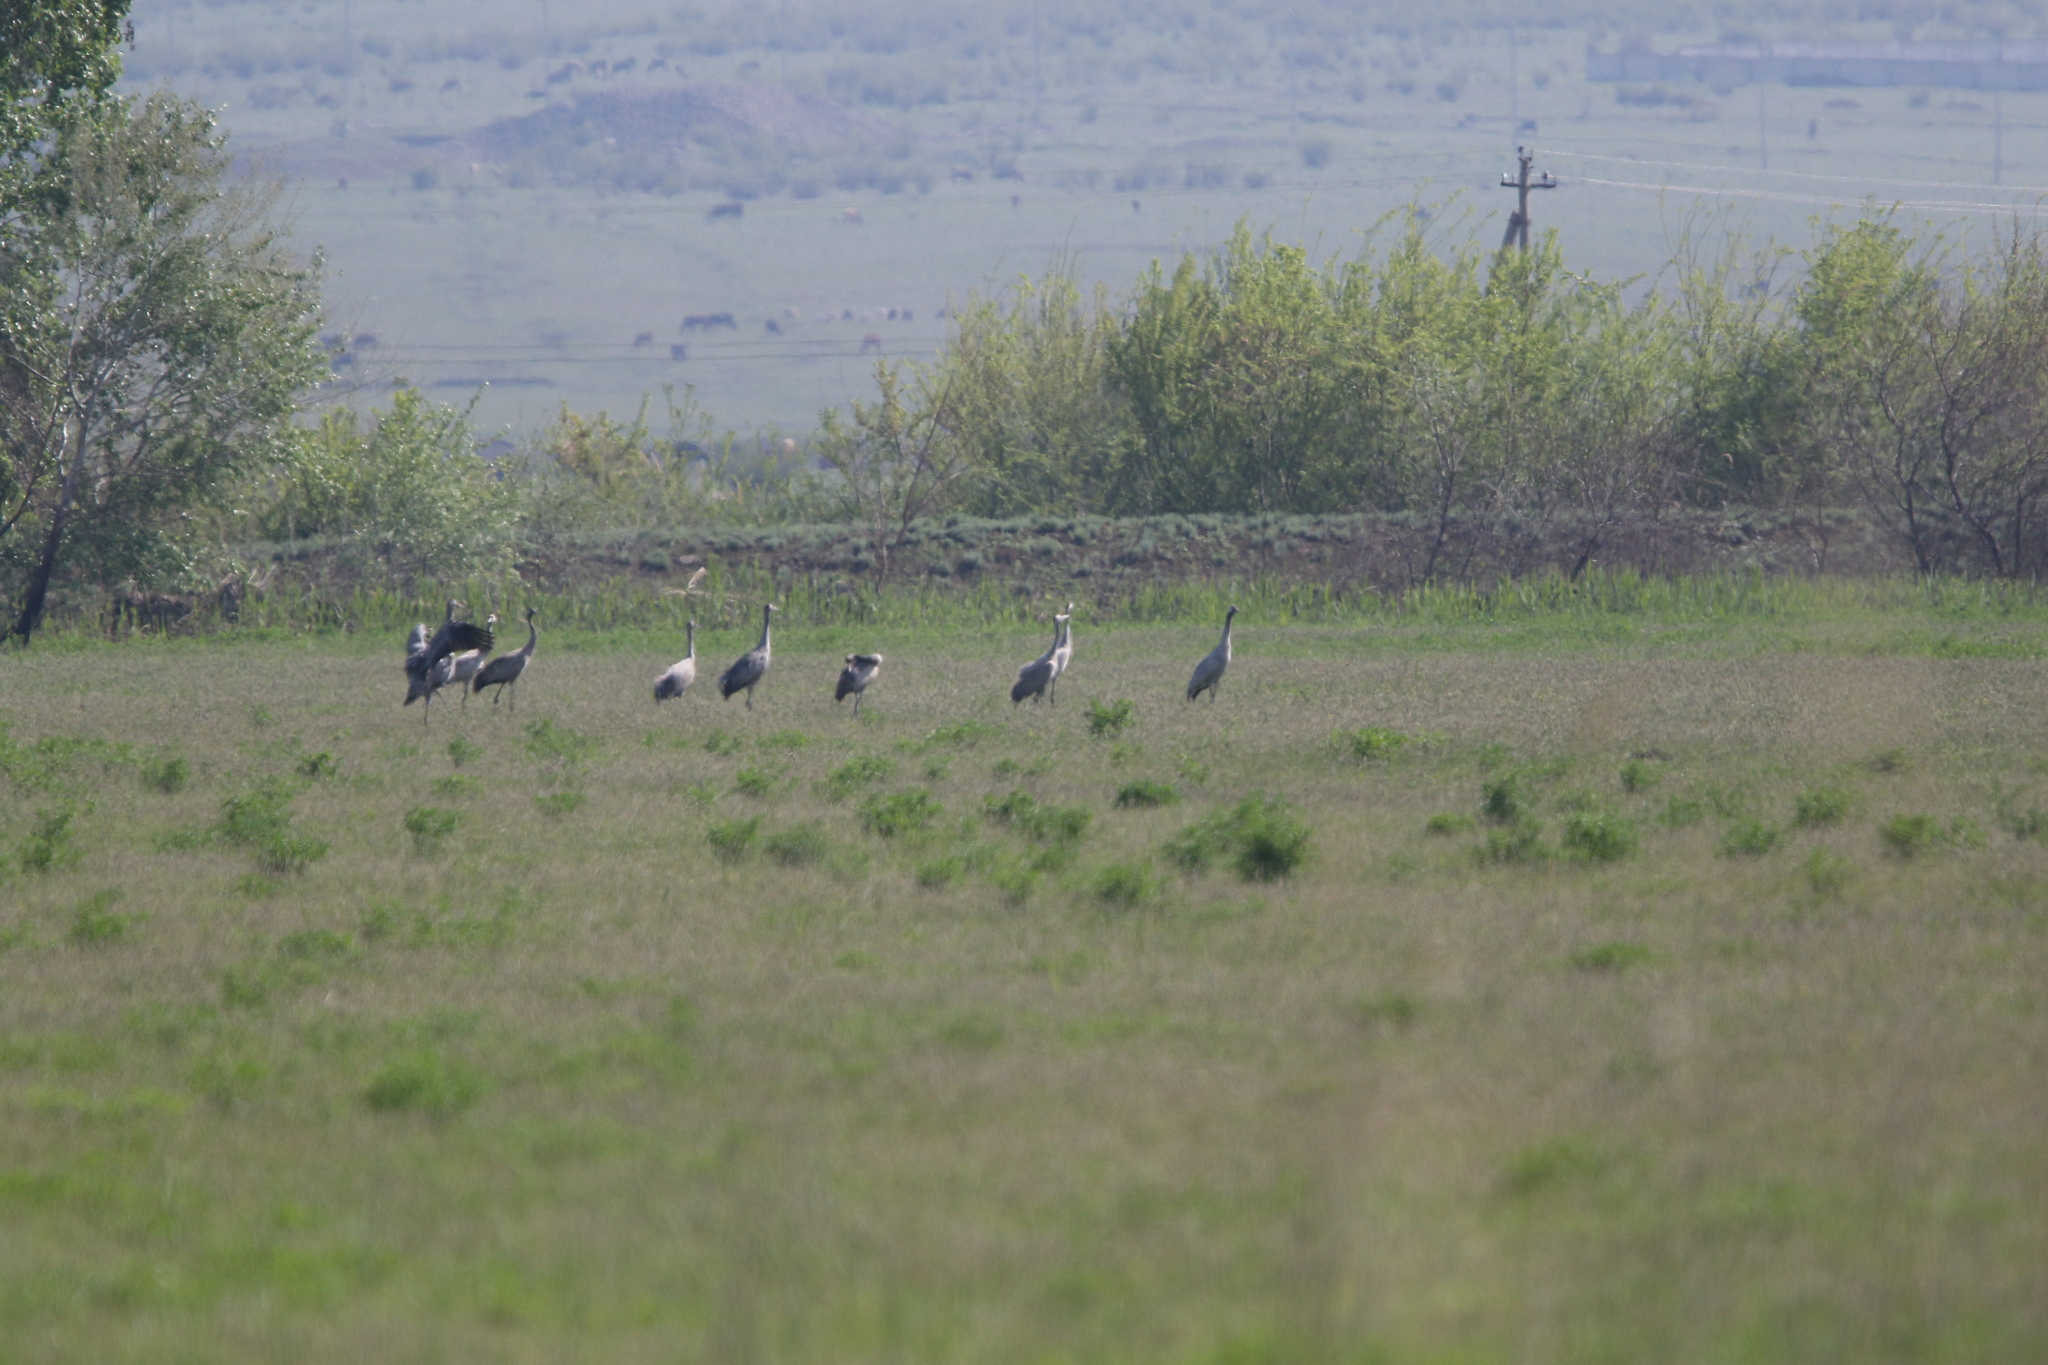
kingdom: Animalia
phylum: Chordata
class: Aves
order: Gruiformes
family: Gruidae
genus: Grus
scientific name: Grus grus
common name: Common crane
